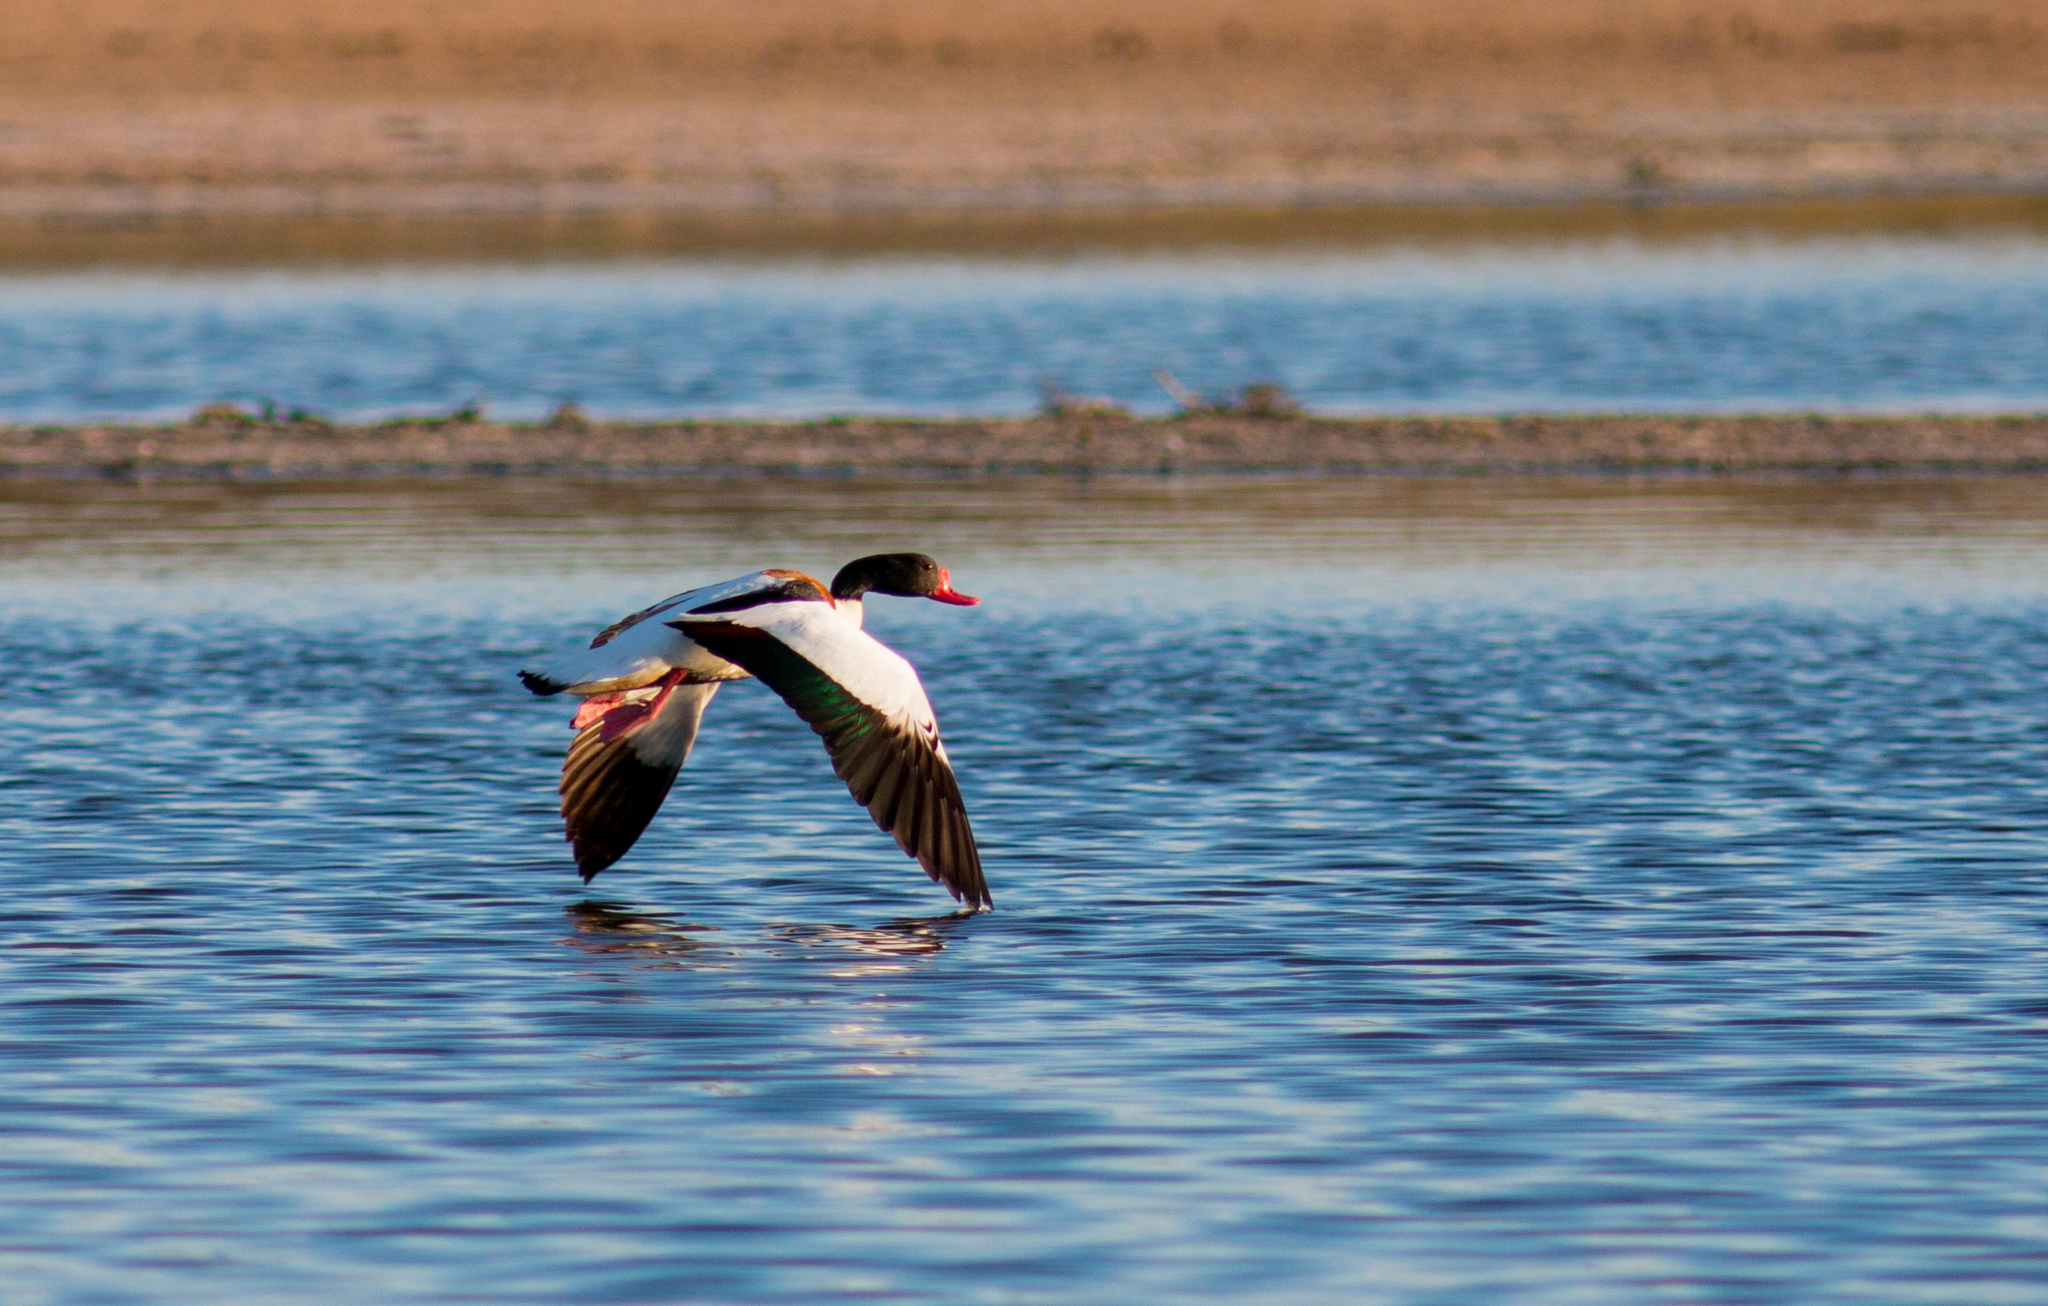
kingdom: Animalia
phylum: Chordata
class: Aves
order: Anseriformes
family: Anatidae
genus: Tadorna
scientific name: Tadorna tadorna
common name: Common shelduck
